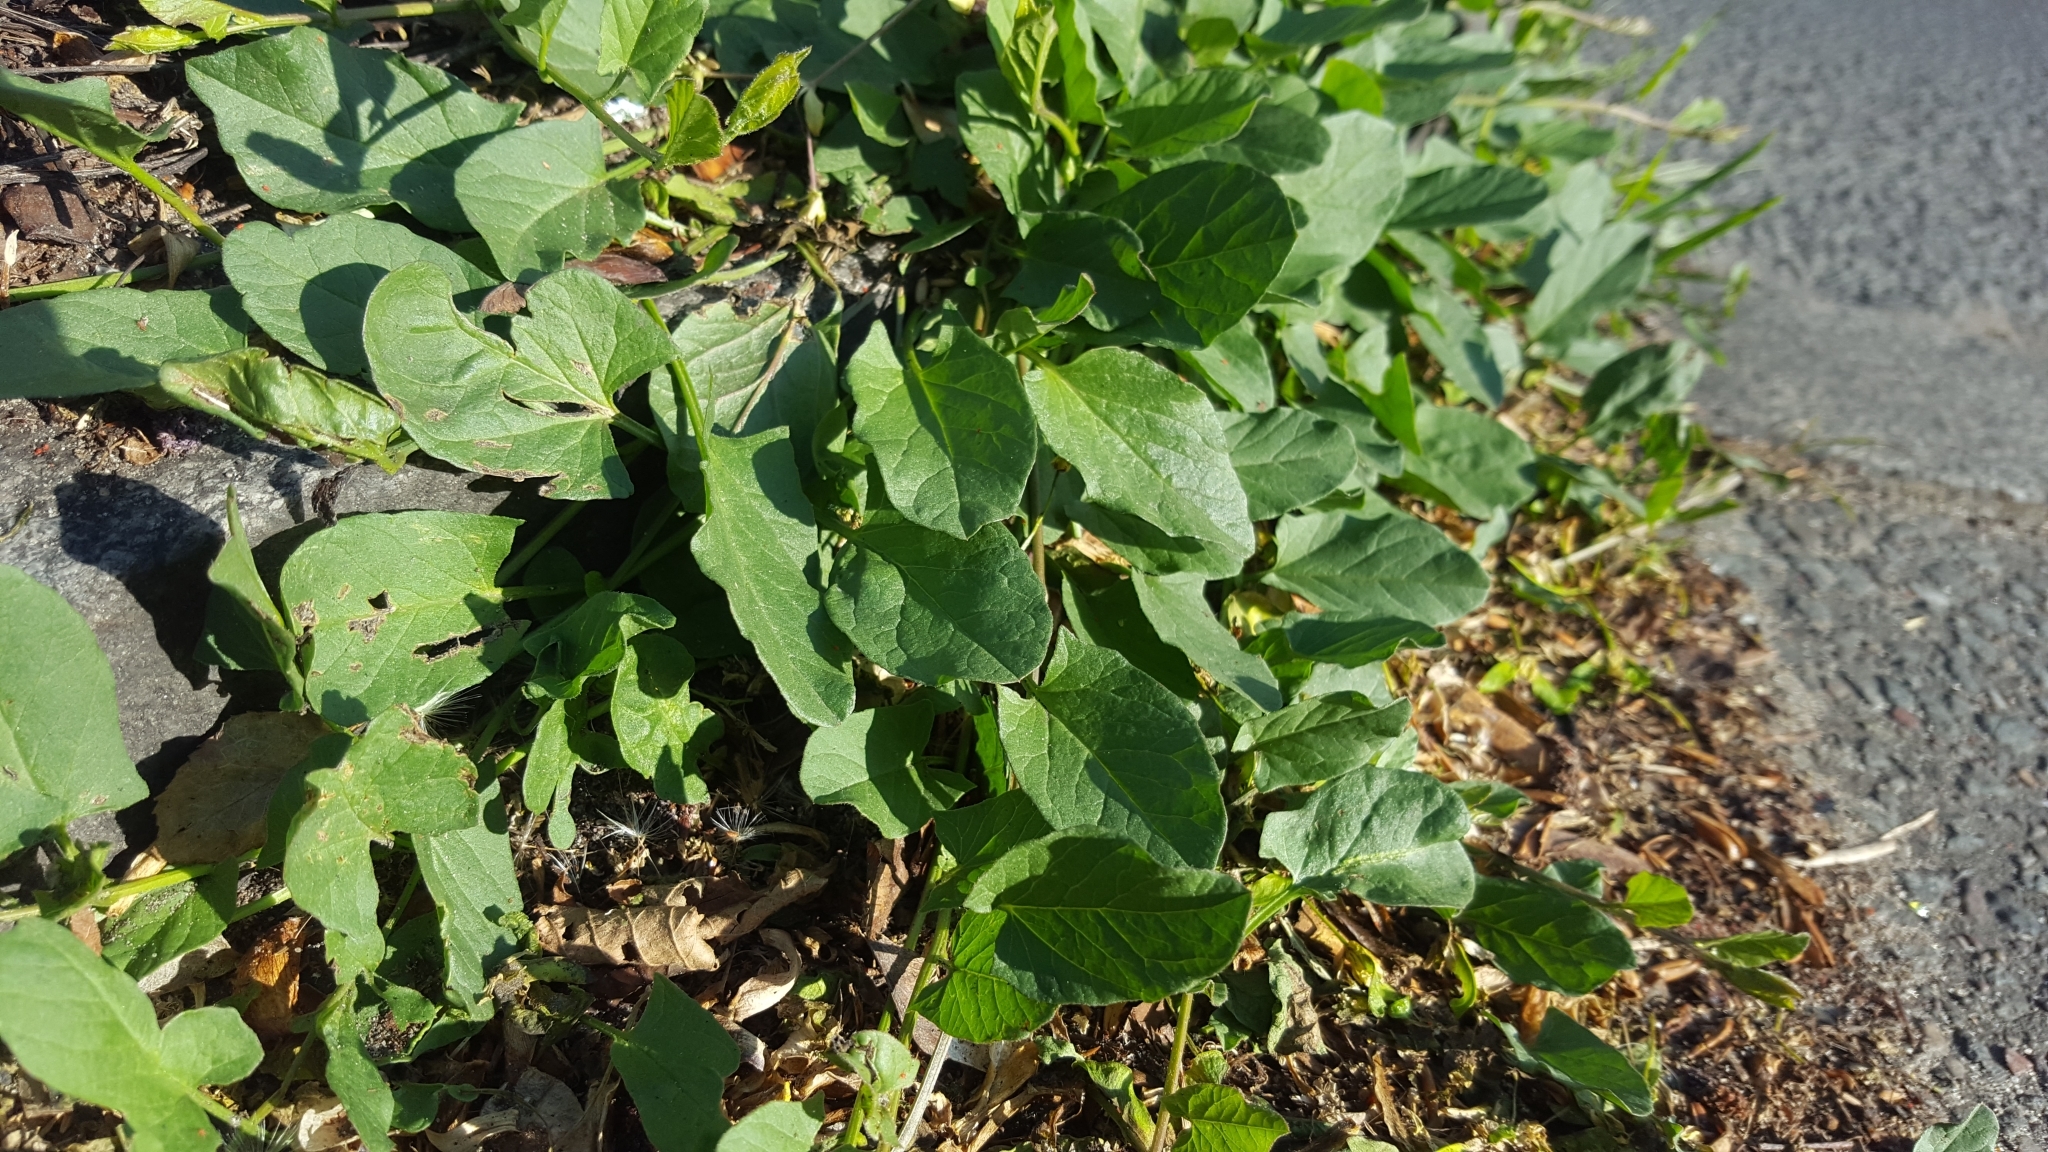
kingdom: Plantae
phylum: Tracheophyta
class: Magnoliopsida
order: Solanales
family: Convolvulaceae
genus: Convolvulus
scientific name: Convolvulus arvensis
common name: Field bindweed
